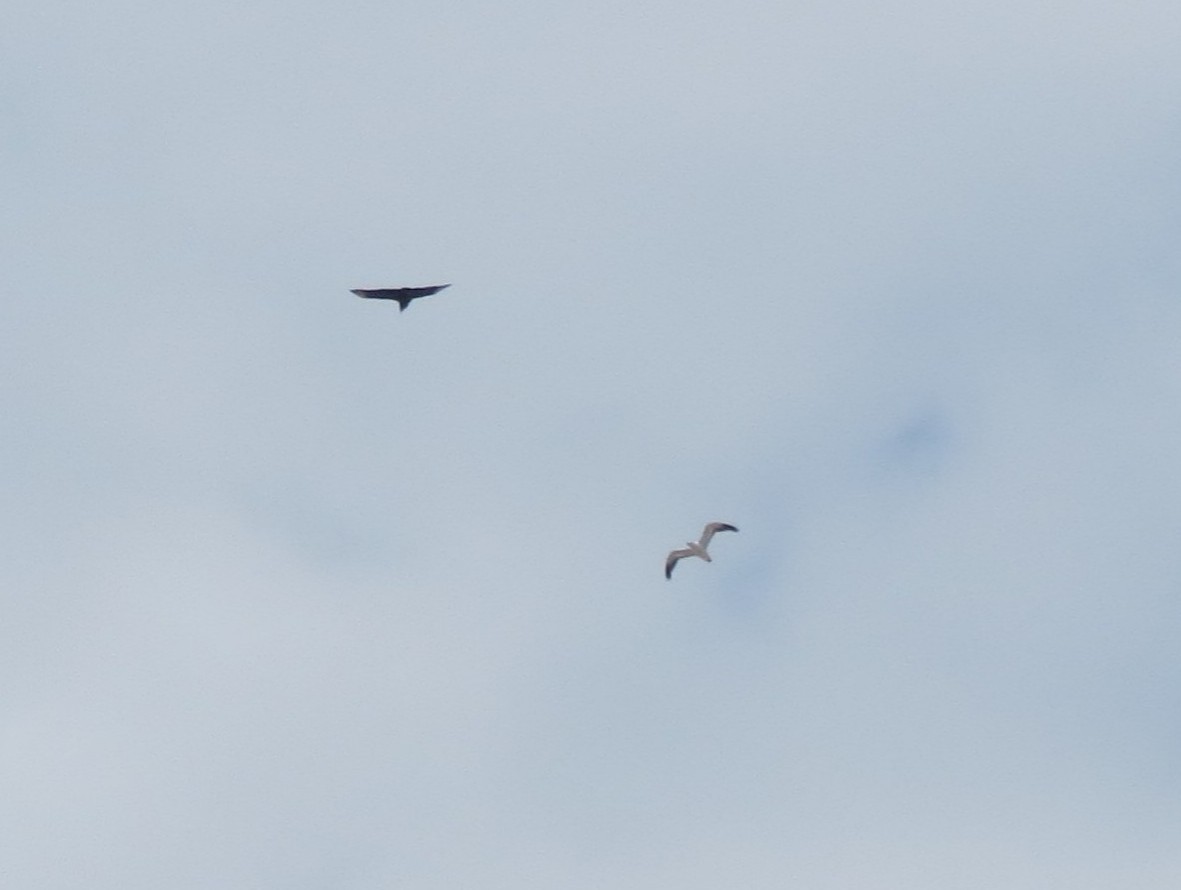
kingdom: Animalia
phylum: Chordata
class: Aves
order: Accipitriformes
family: Cathartidae
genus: Coragyps
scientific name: Coragyps atratus
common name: Black vulture
